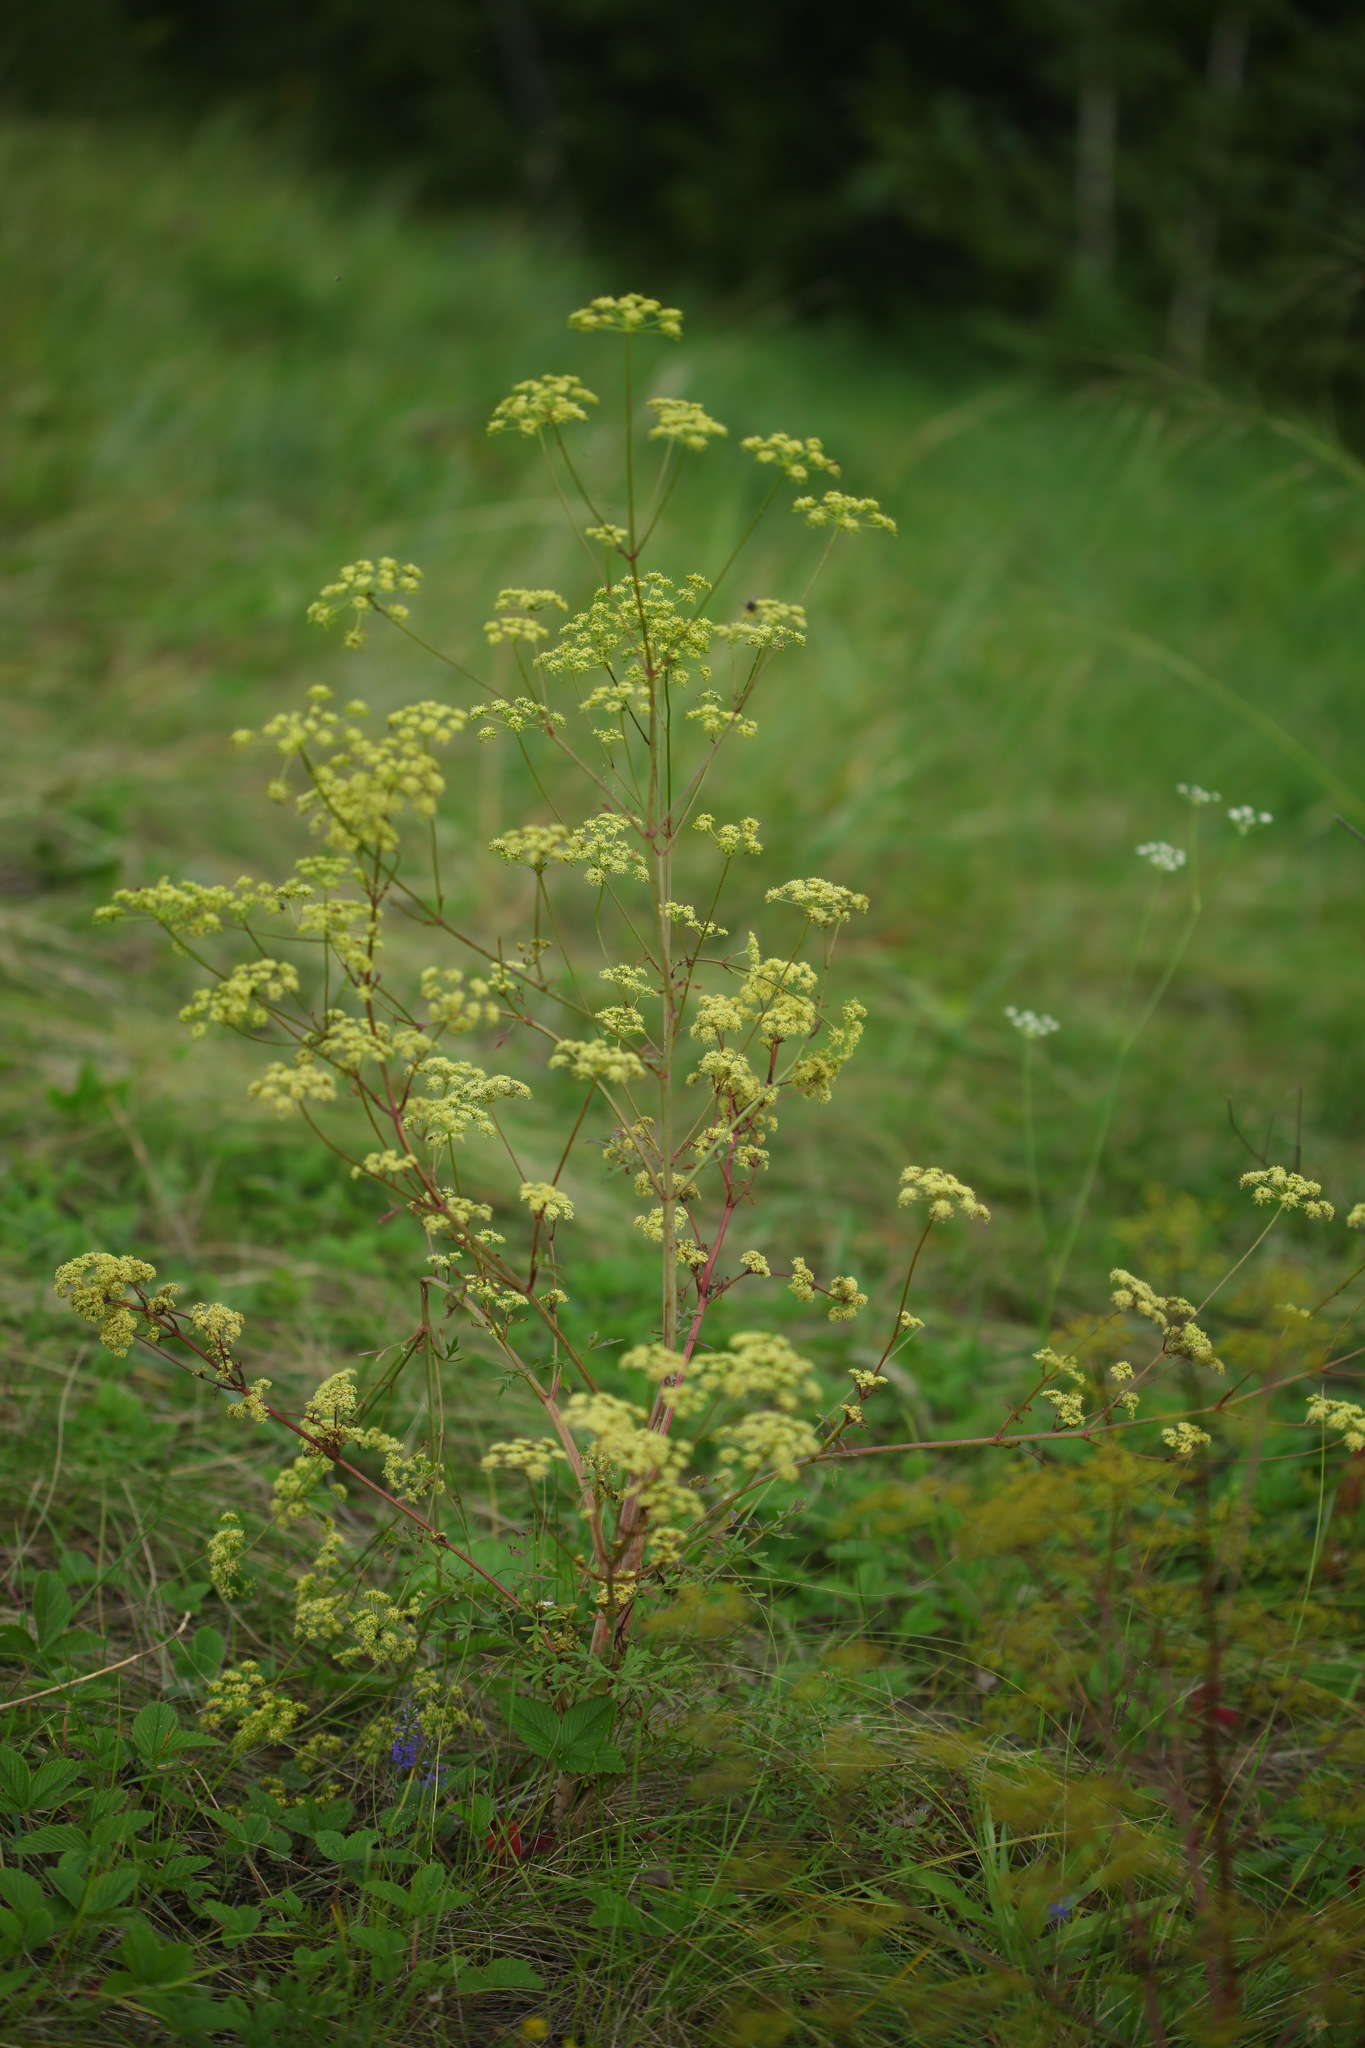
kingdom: Plantae
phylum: Tracheophyta
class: Magnoliopsida
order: Apiales
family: Apiaceae
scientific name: Apiaceae
